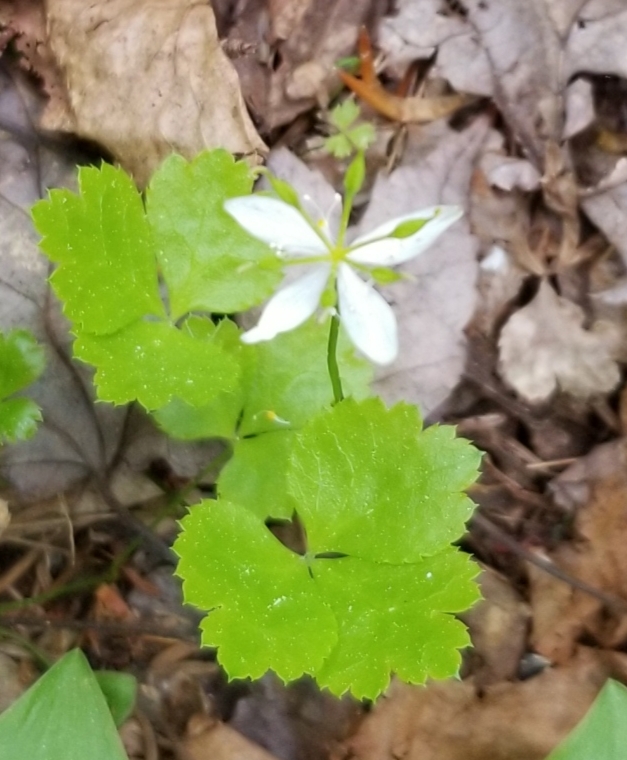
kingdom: Plantae
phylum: Tracheophyta
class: Magnoliopsida
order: Ranunculales
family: Ranunculaceae
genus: Coptis
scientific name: Coptis trifolia
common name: Canker-root
